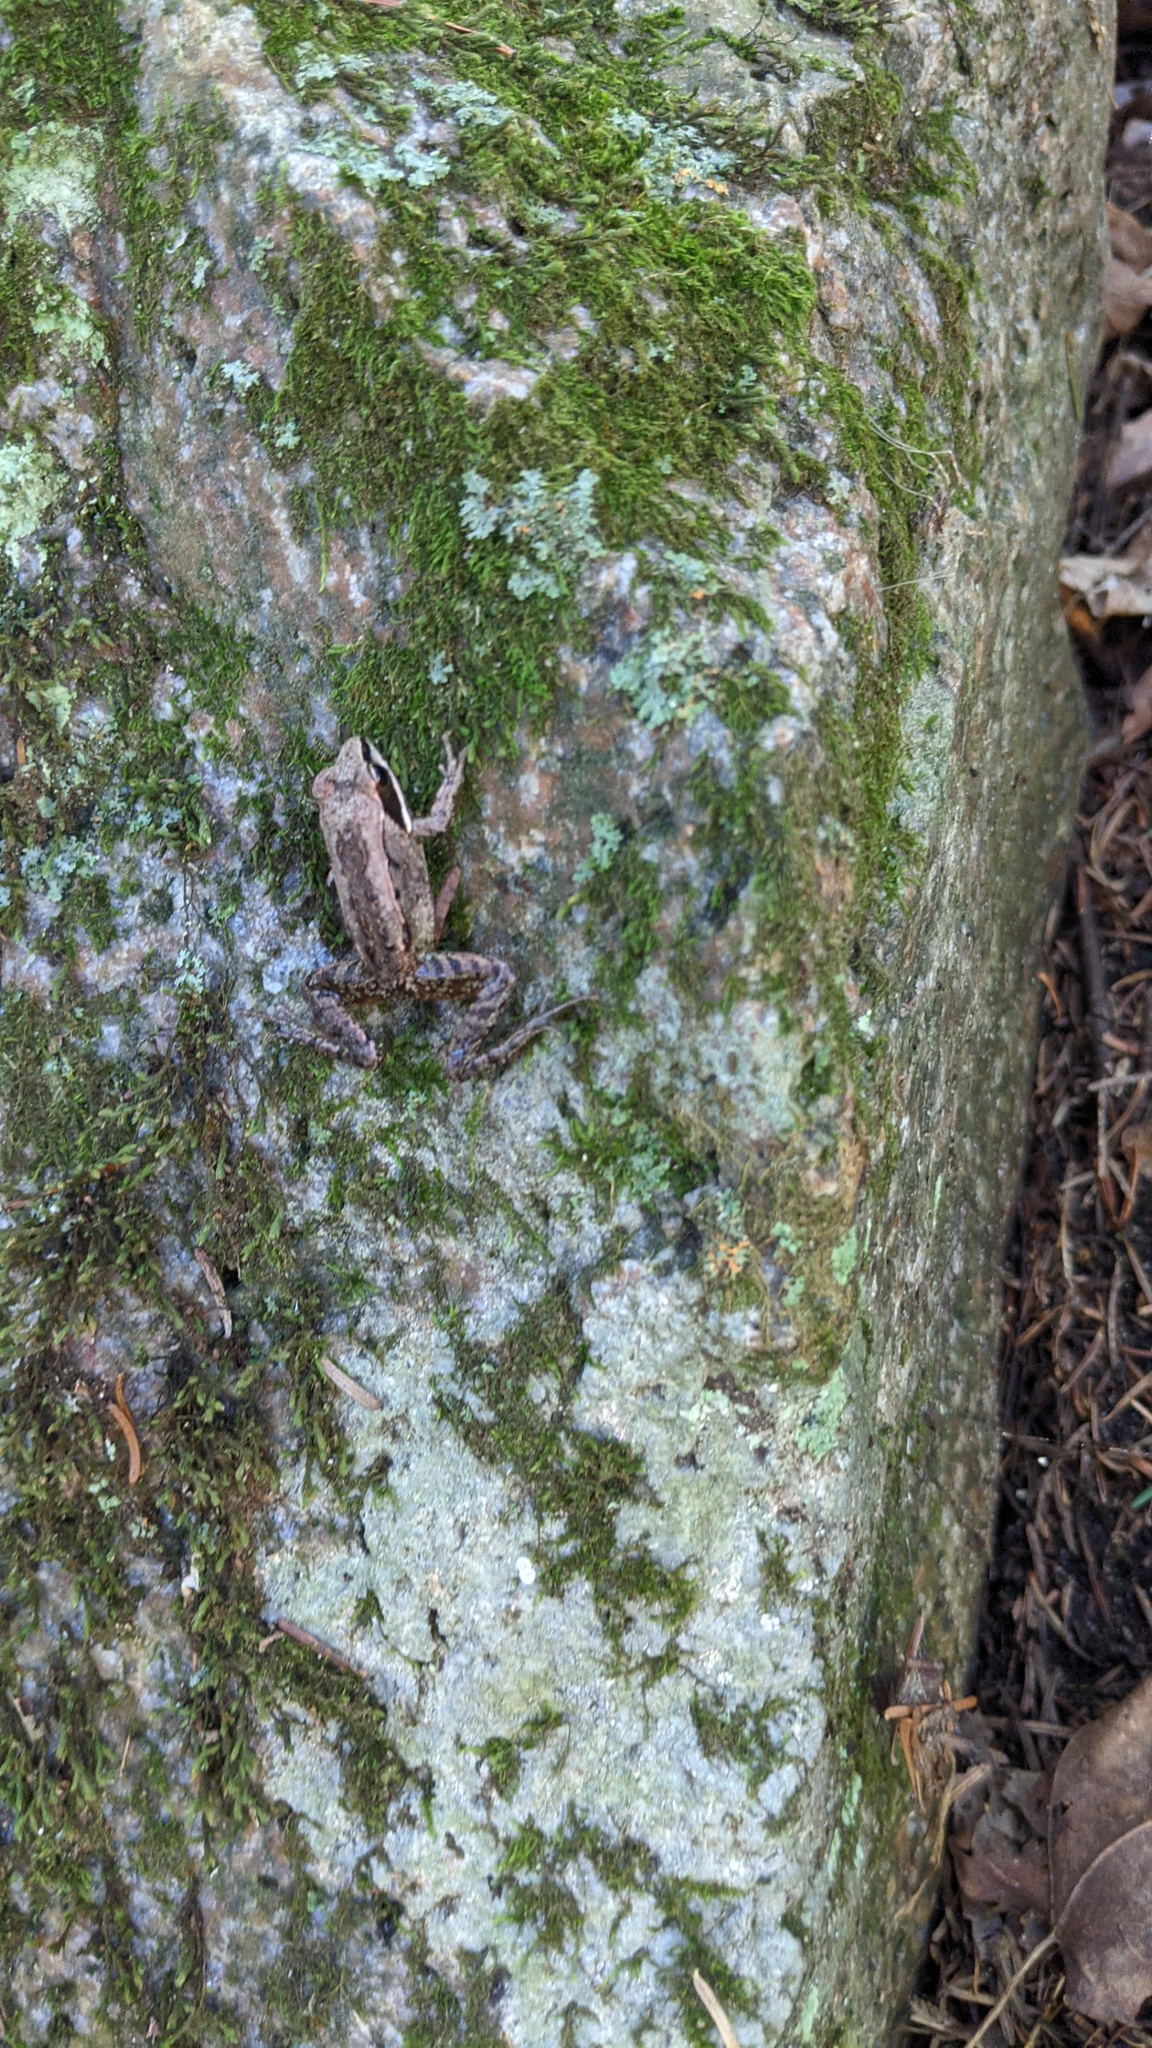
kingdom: Animalia
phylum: Chordata
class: Amphibia
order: Anura
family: Ranidae
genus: Lithobates
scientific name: Lithobates sylvaticus
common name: Wood frog
